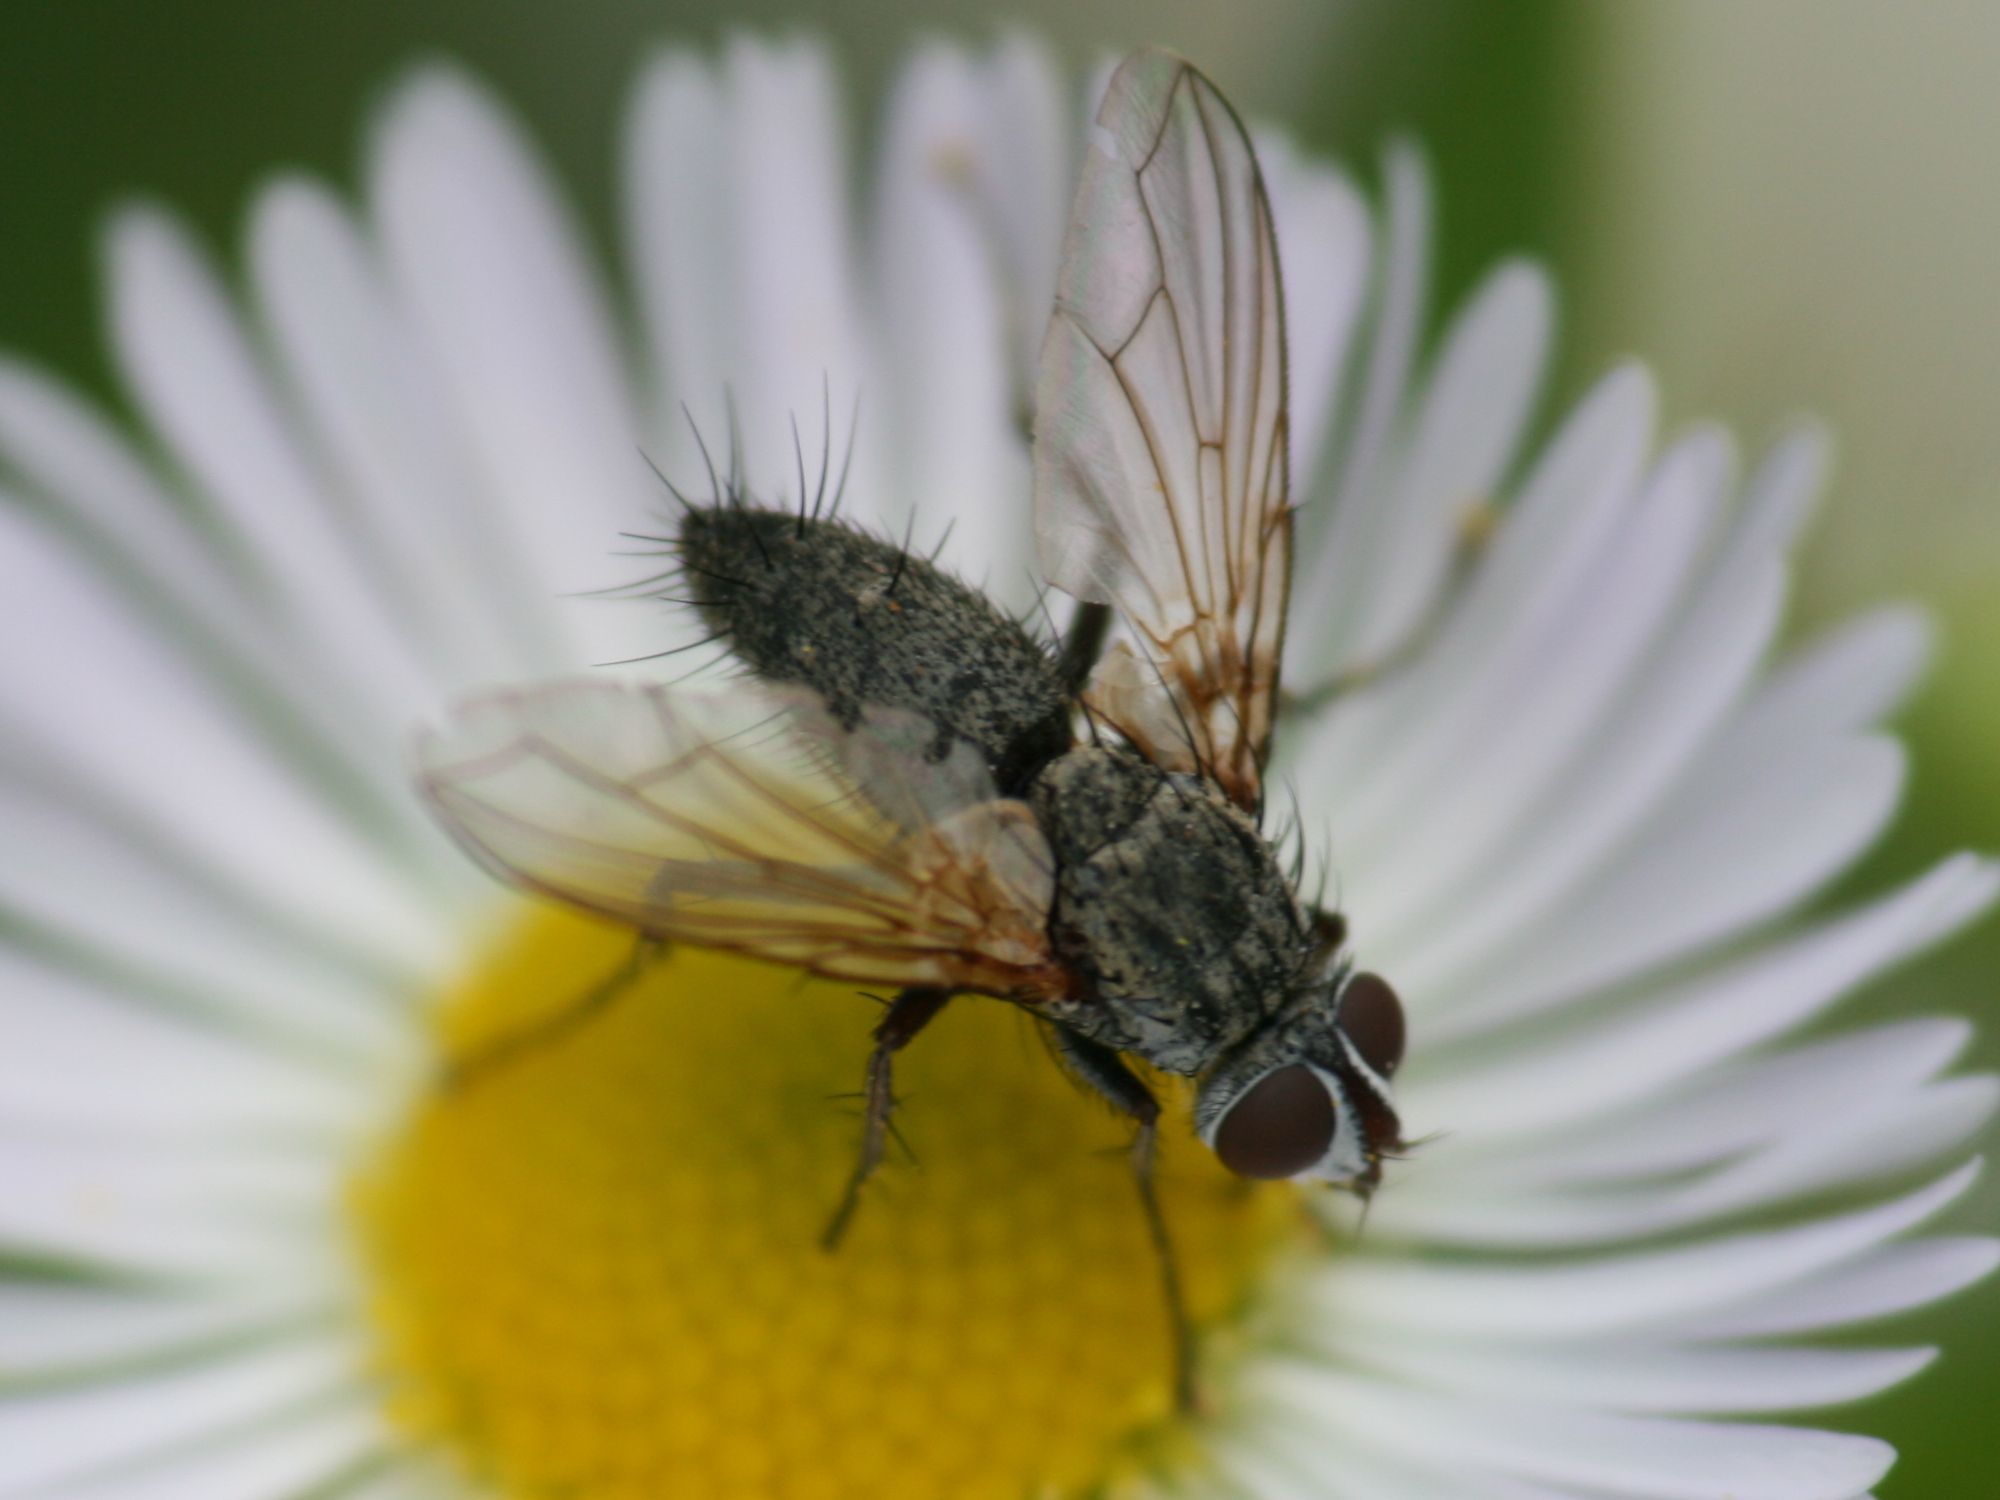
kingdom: Animalia
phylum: Arthropoda
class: Insecta
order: Diptera
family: Tachinidae
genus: Dinera
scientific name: Dinera grisescens
